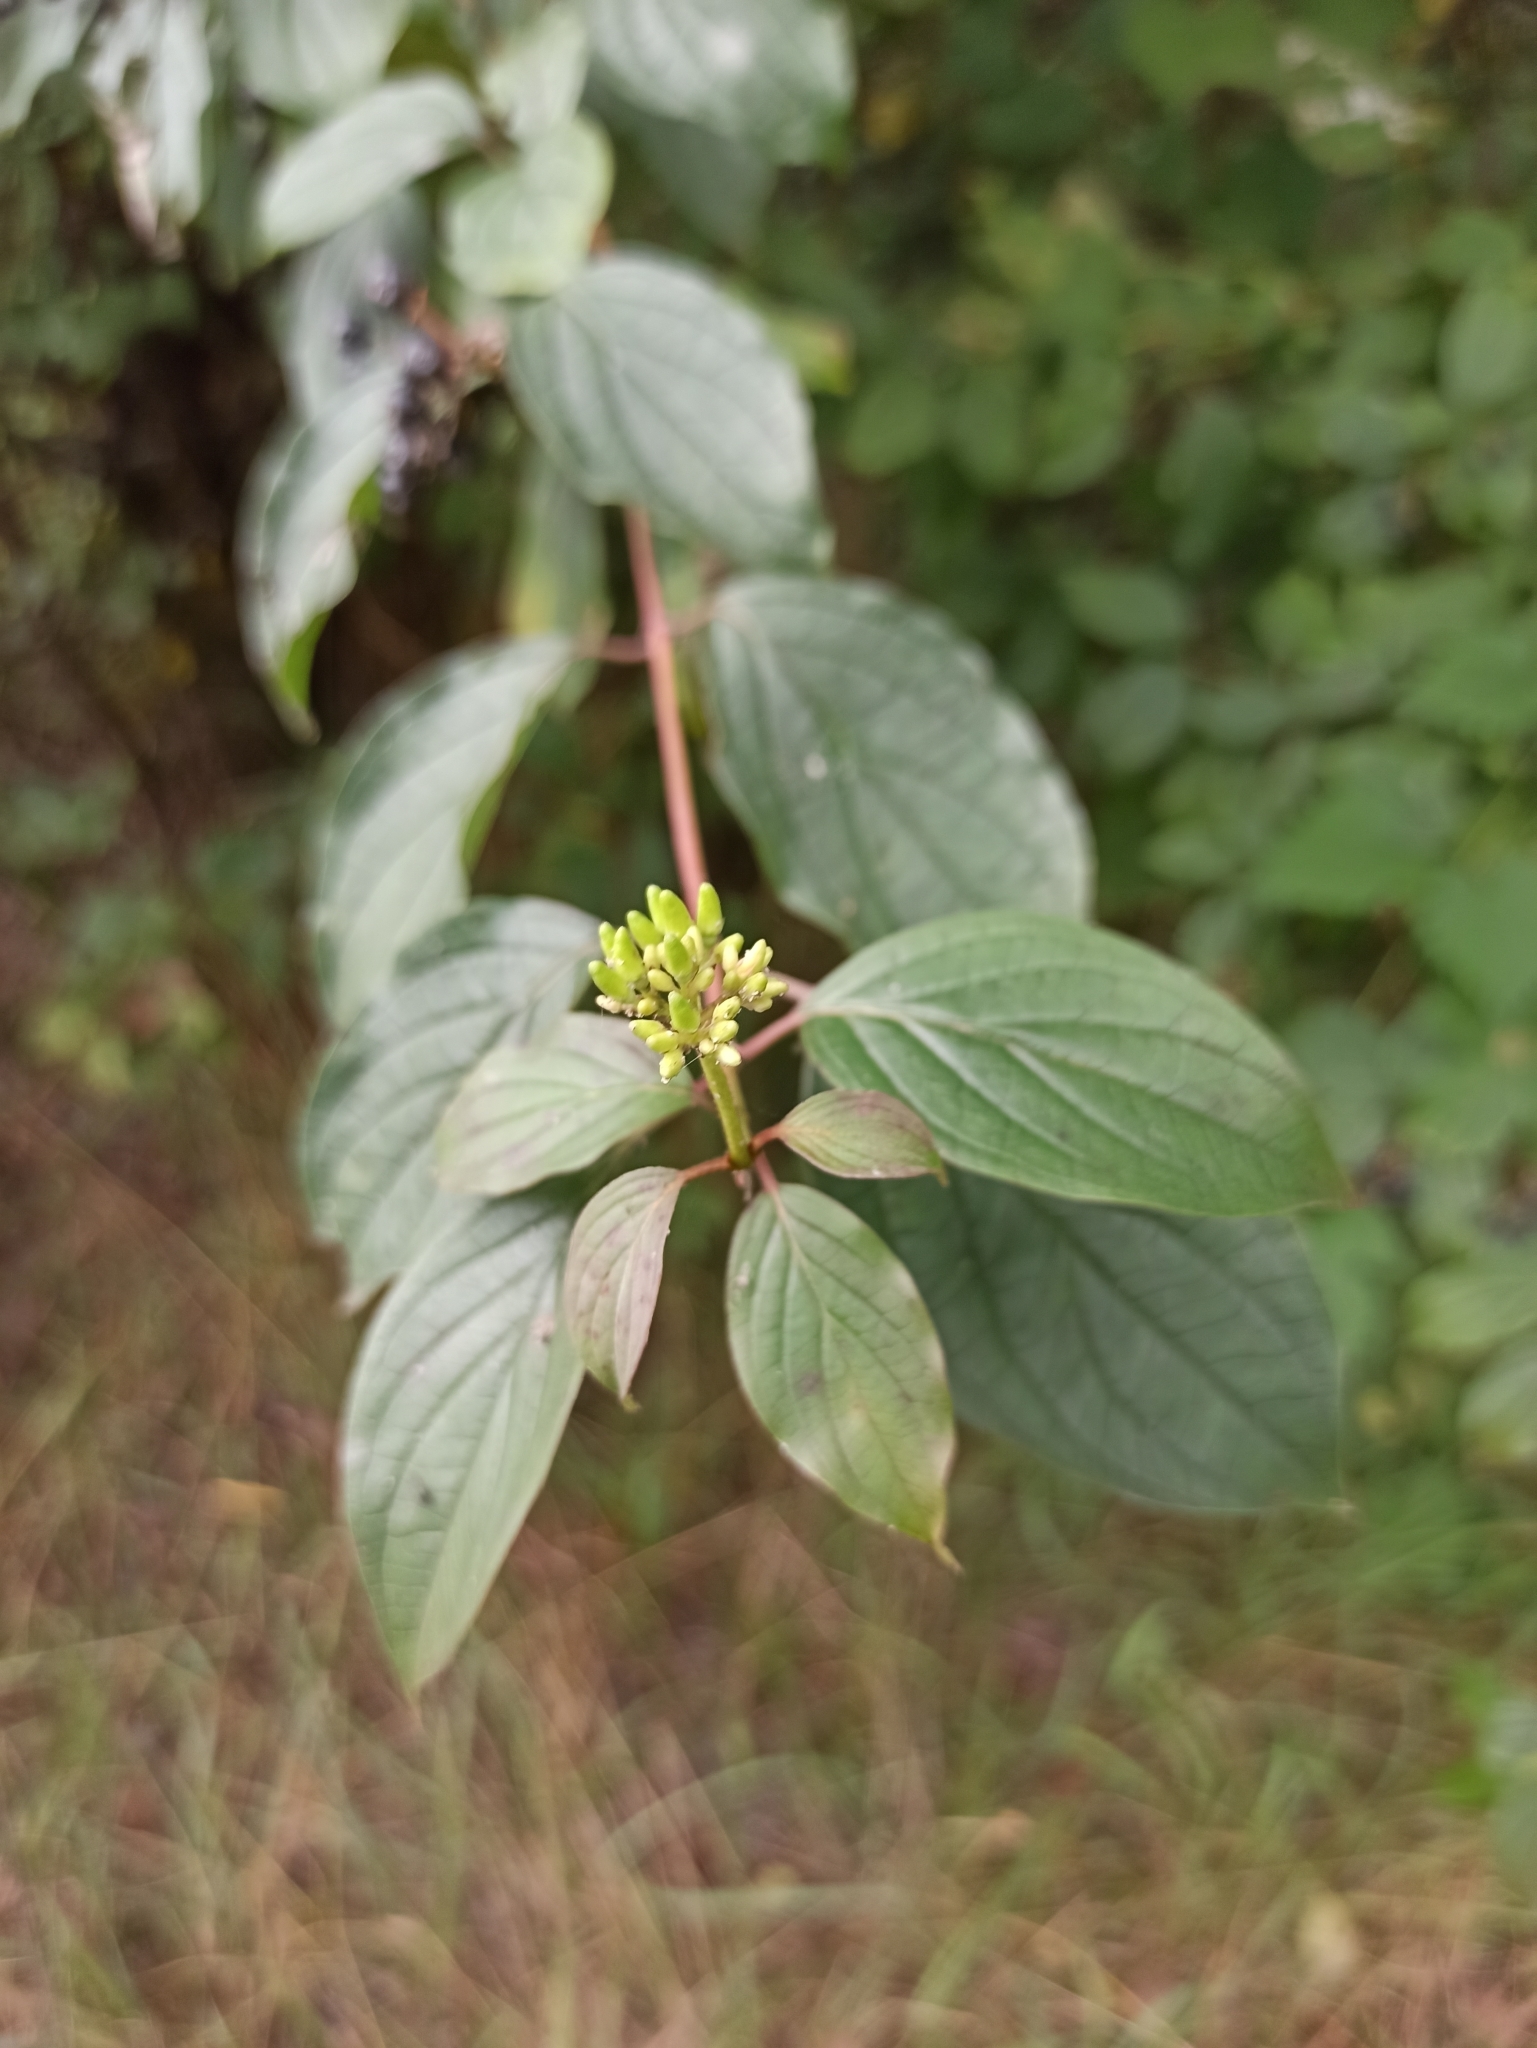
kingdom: Plantae
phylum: Tracheophyta
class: Magnoliopsida
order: Cornales
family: Cornaceae
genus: Cornus
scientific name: Cornus sanguinea
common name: Dogwood
